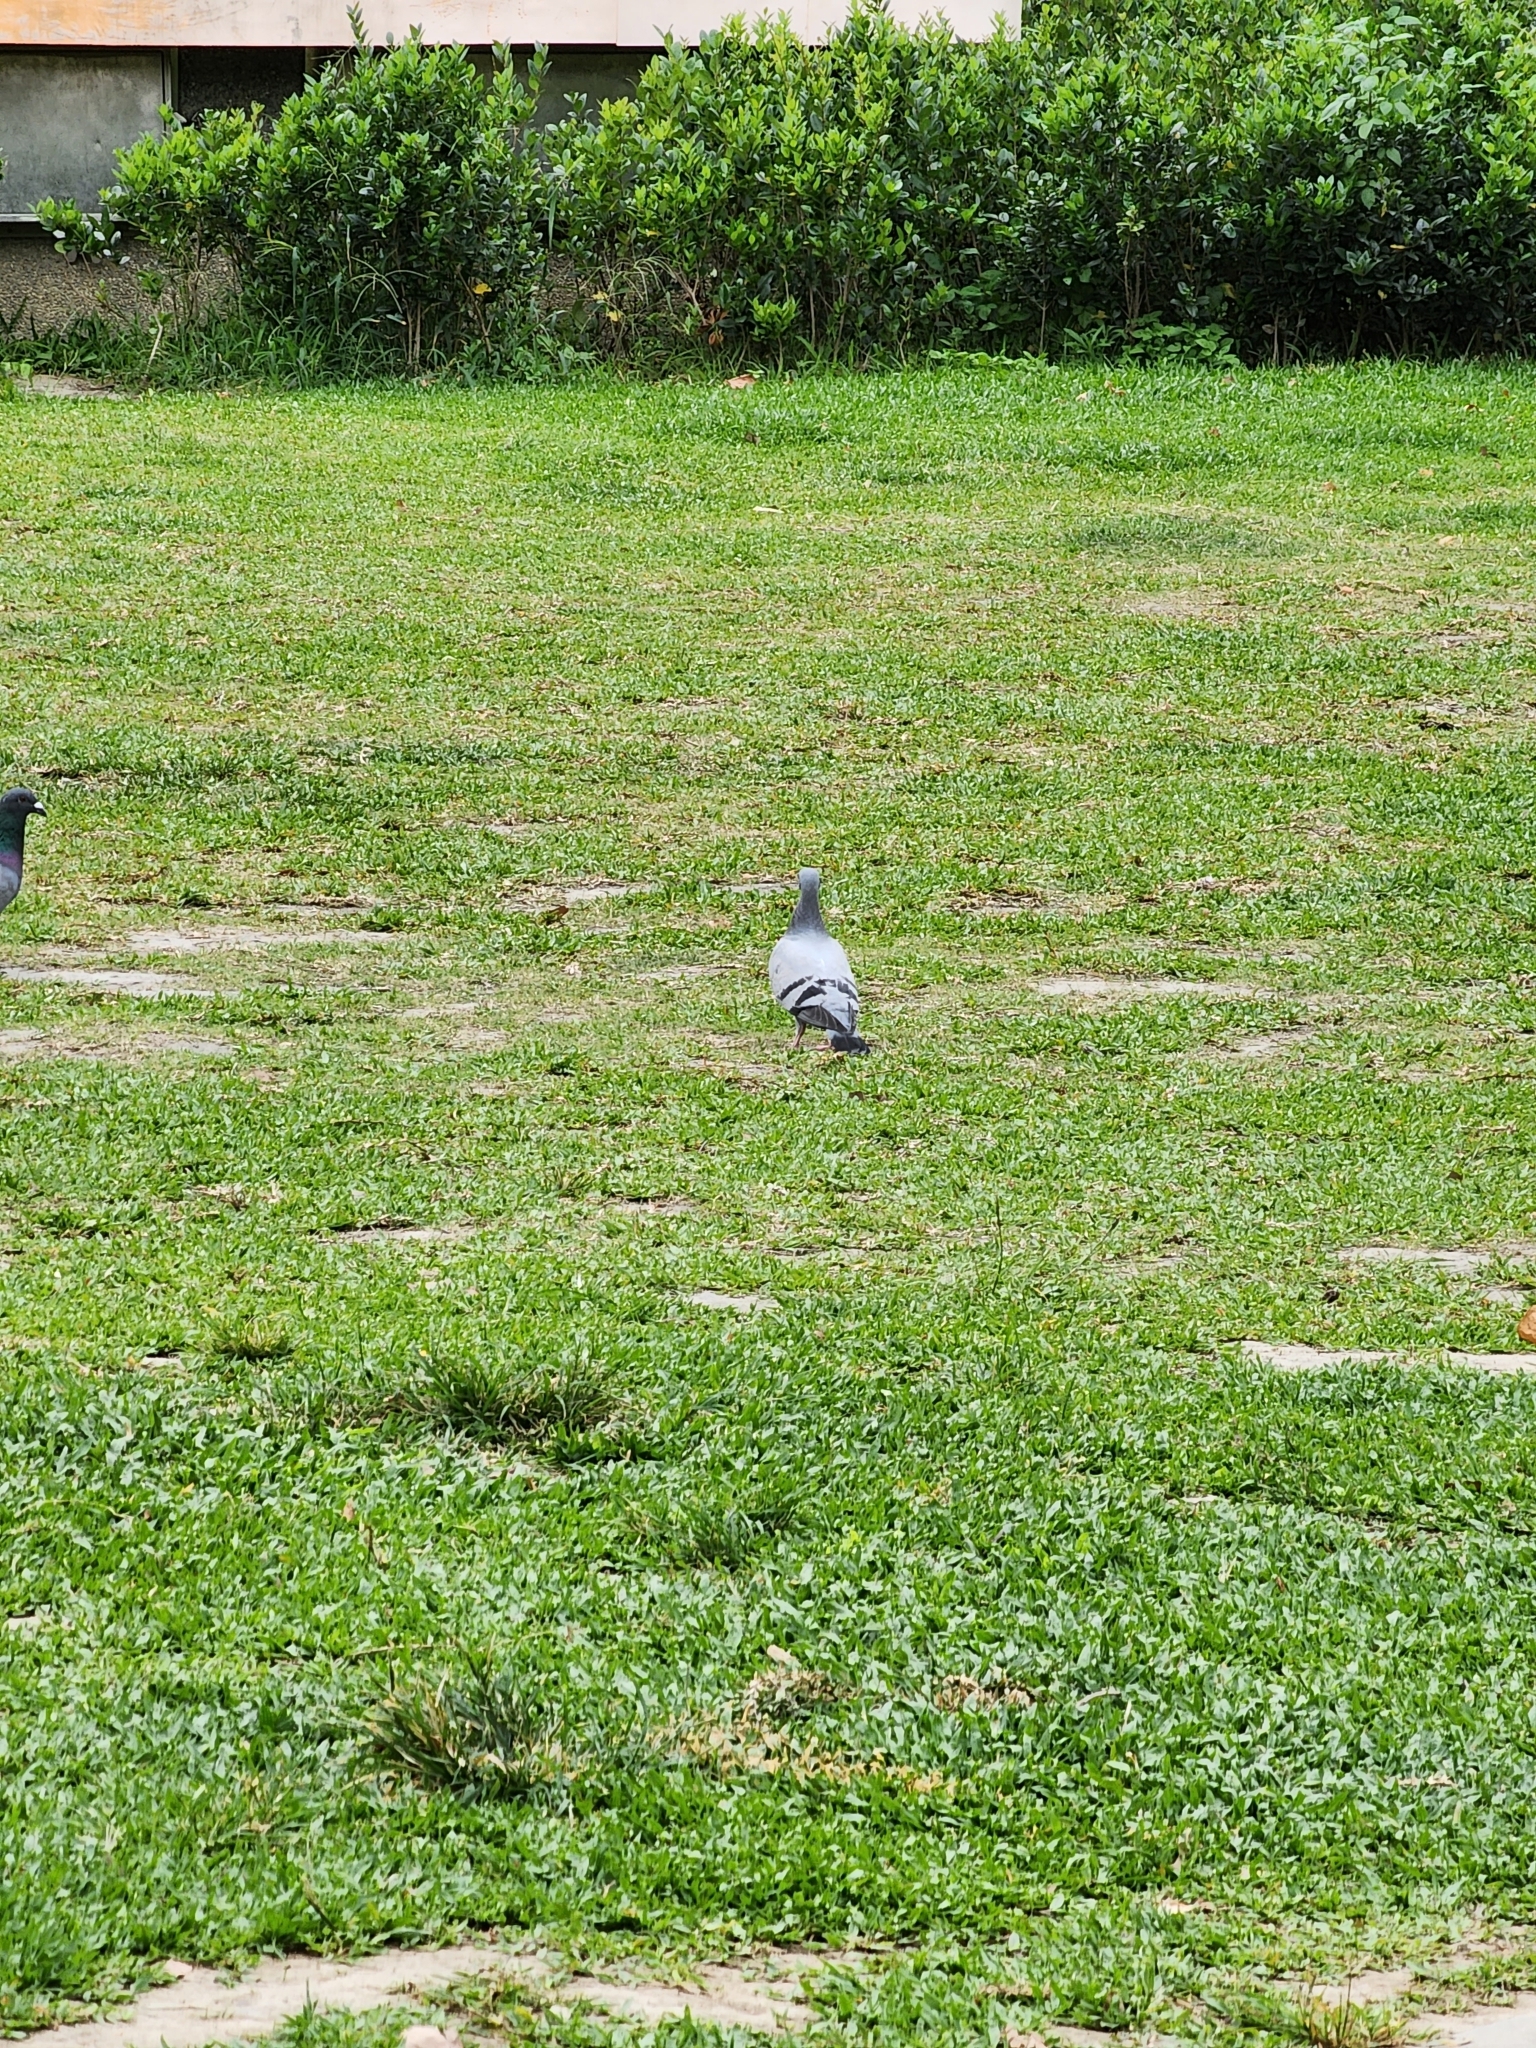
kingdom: Animalia
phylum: Chordata
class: Aves
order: Columbiformes
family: Columbidae
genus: Columba
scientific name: Columba livia
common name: Rock pigeon
